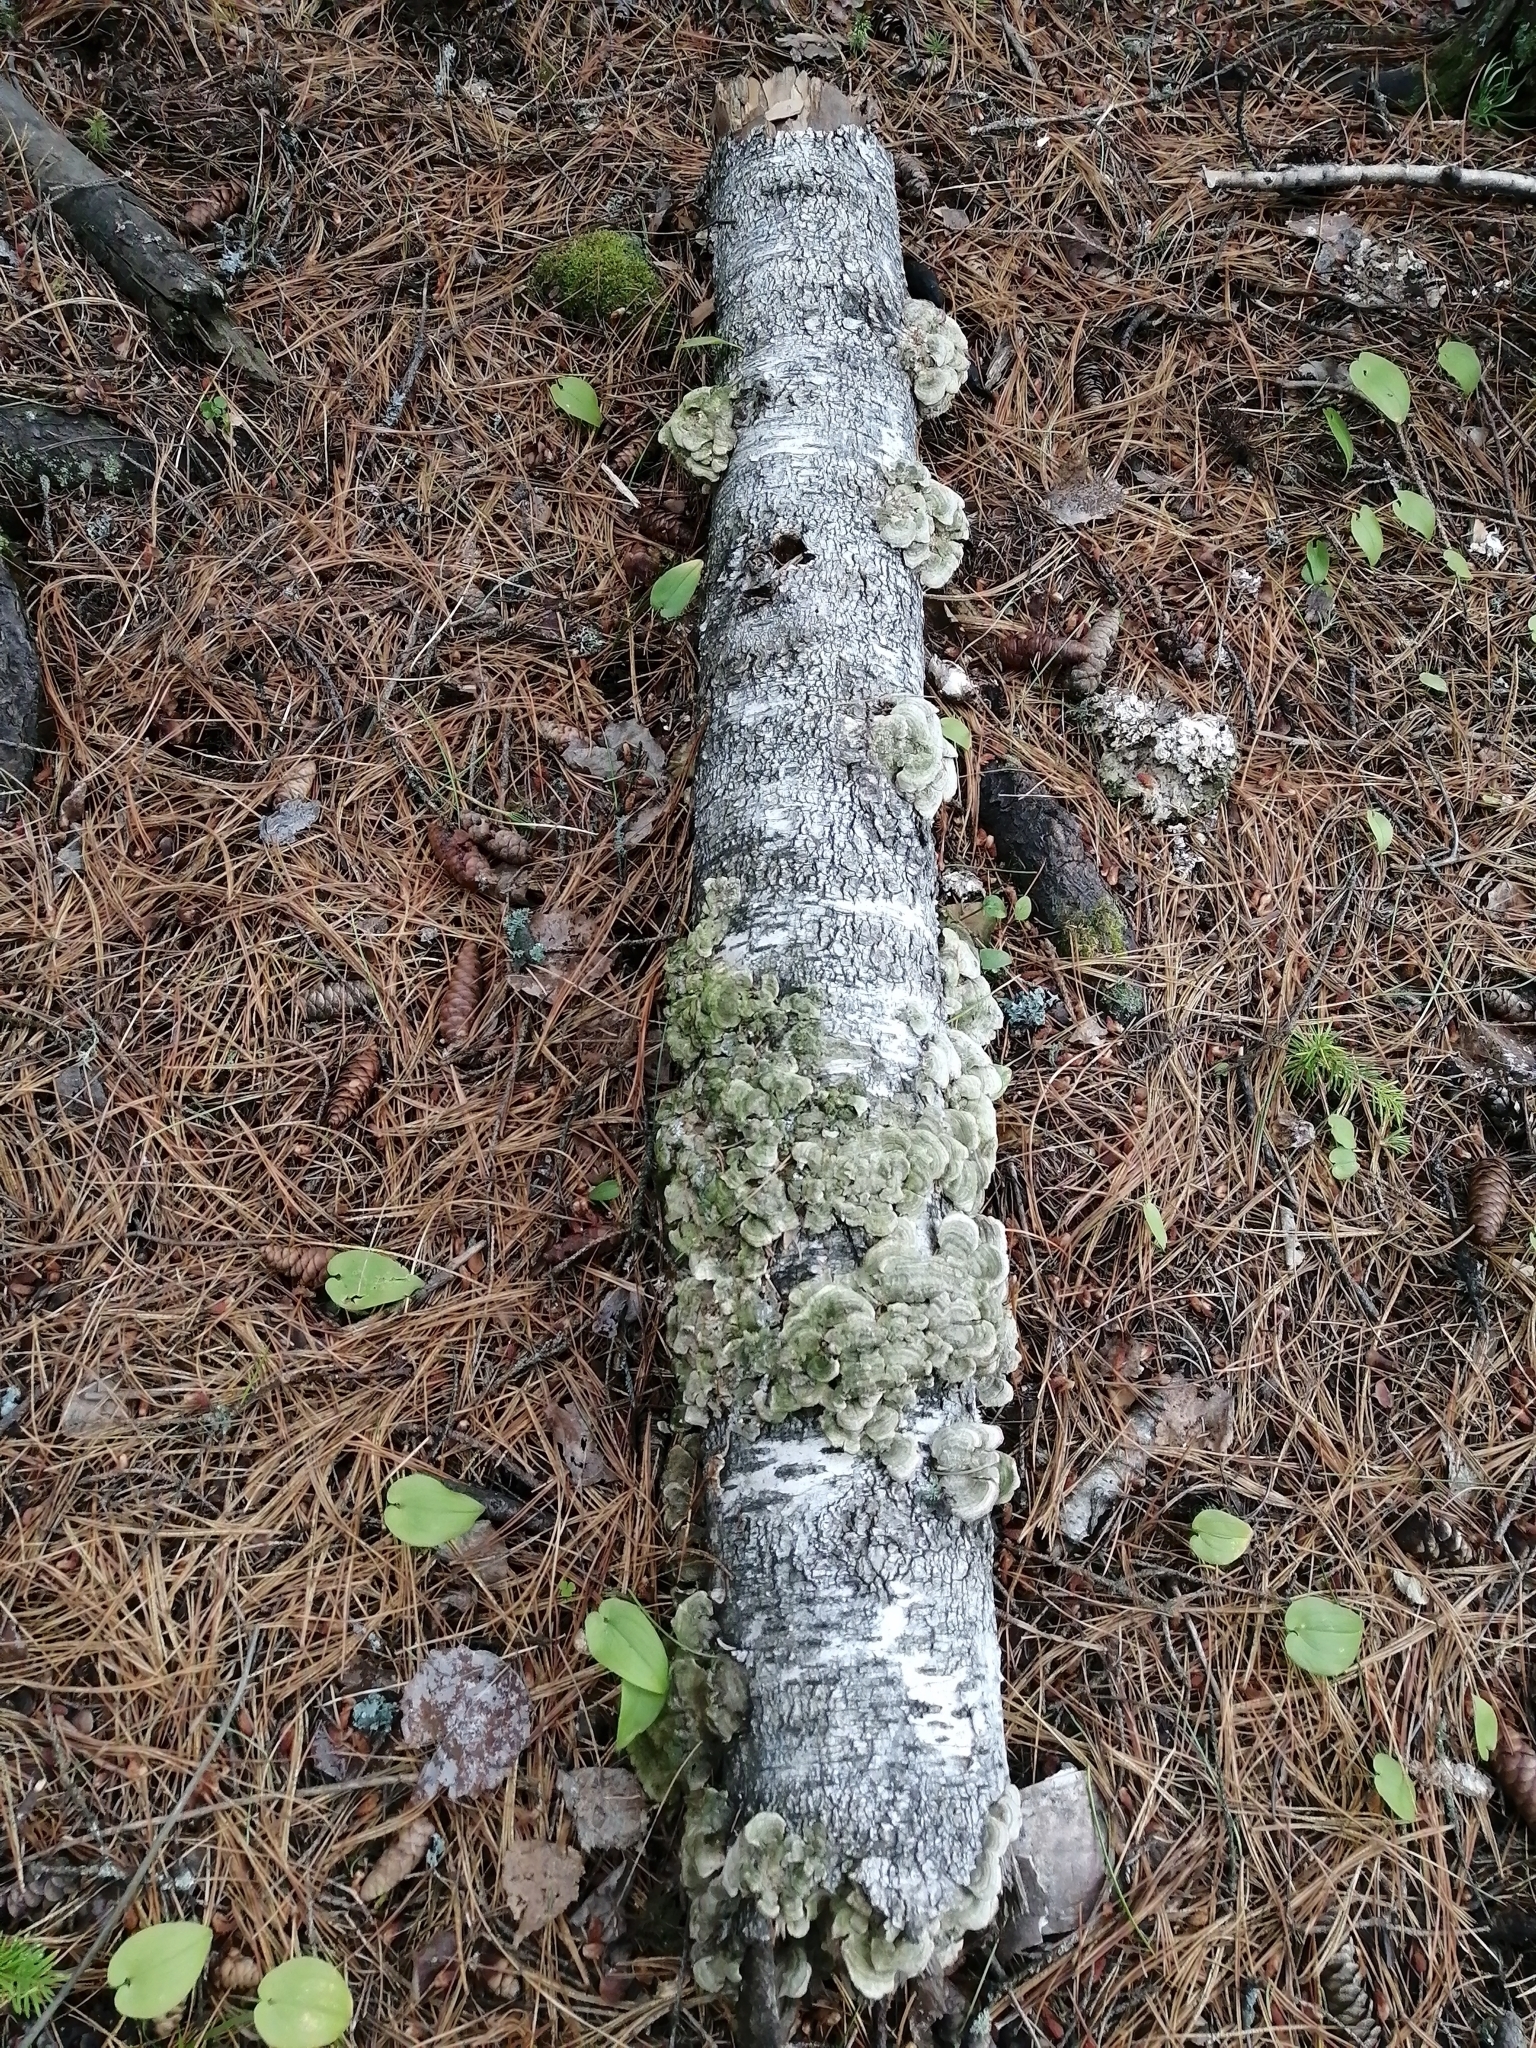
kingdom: Fungi
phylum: Basidiomycota
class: Agaricomycetes
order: Hymenochaetales
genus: Trichaptum
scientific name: Trichaptum biforme
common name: Violet-toothed polypore
